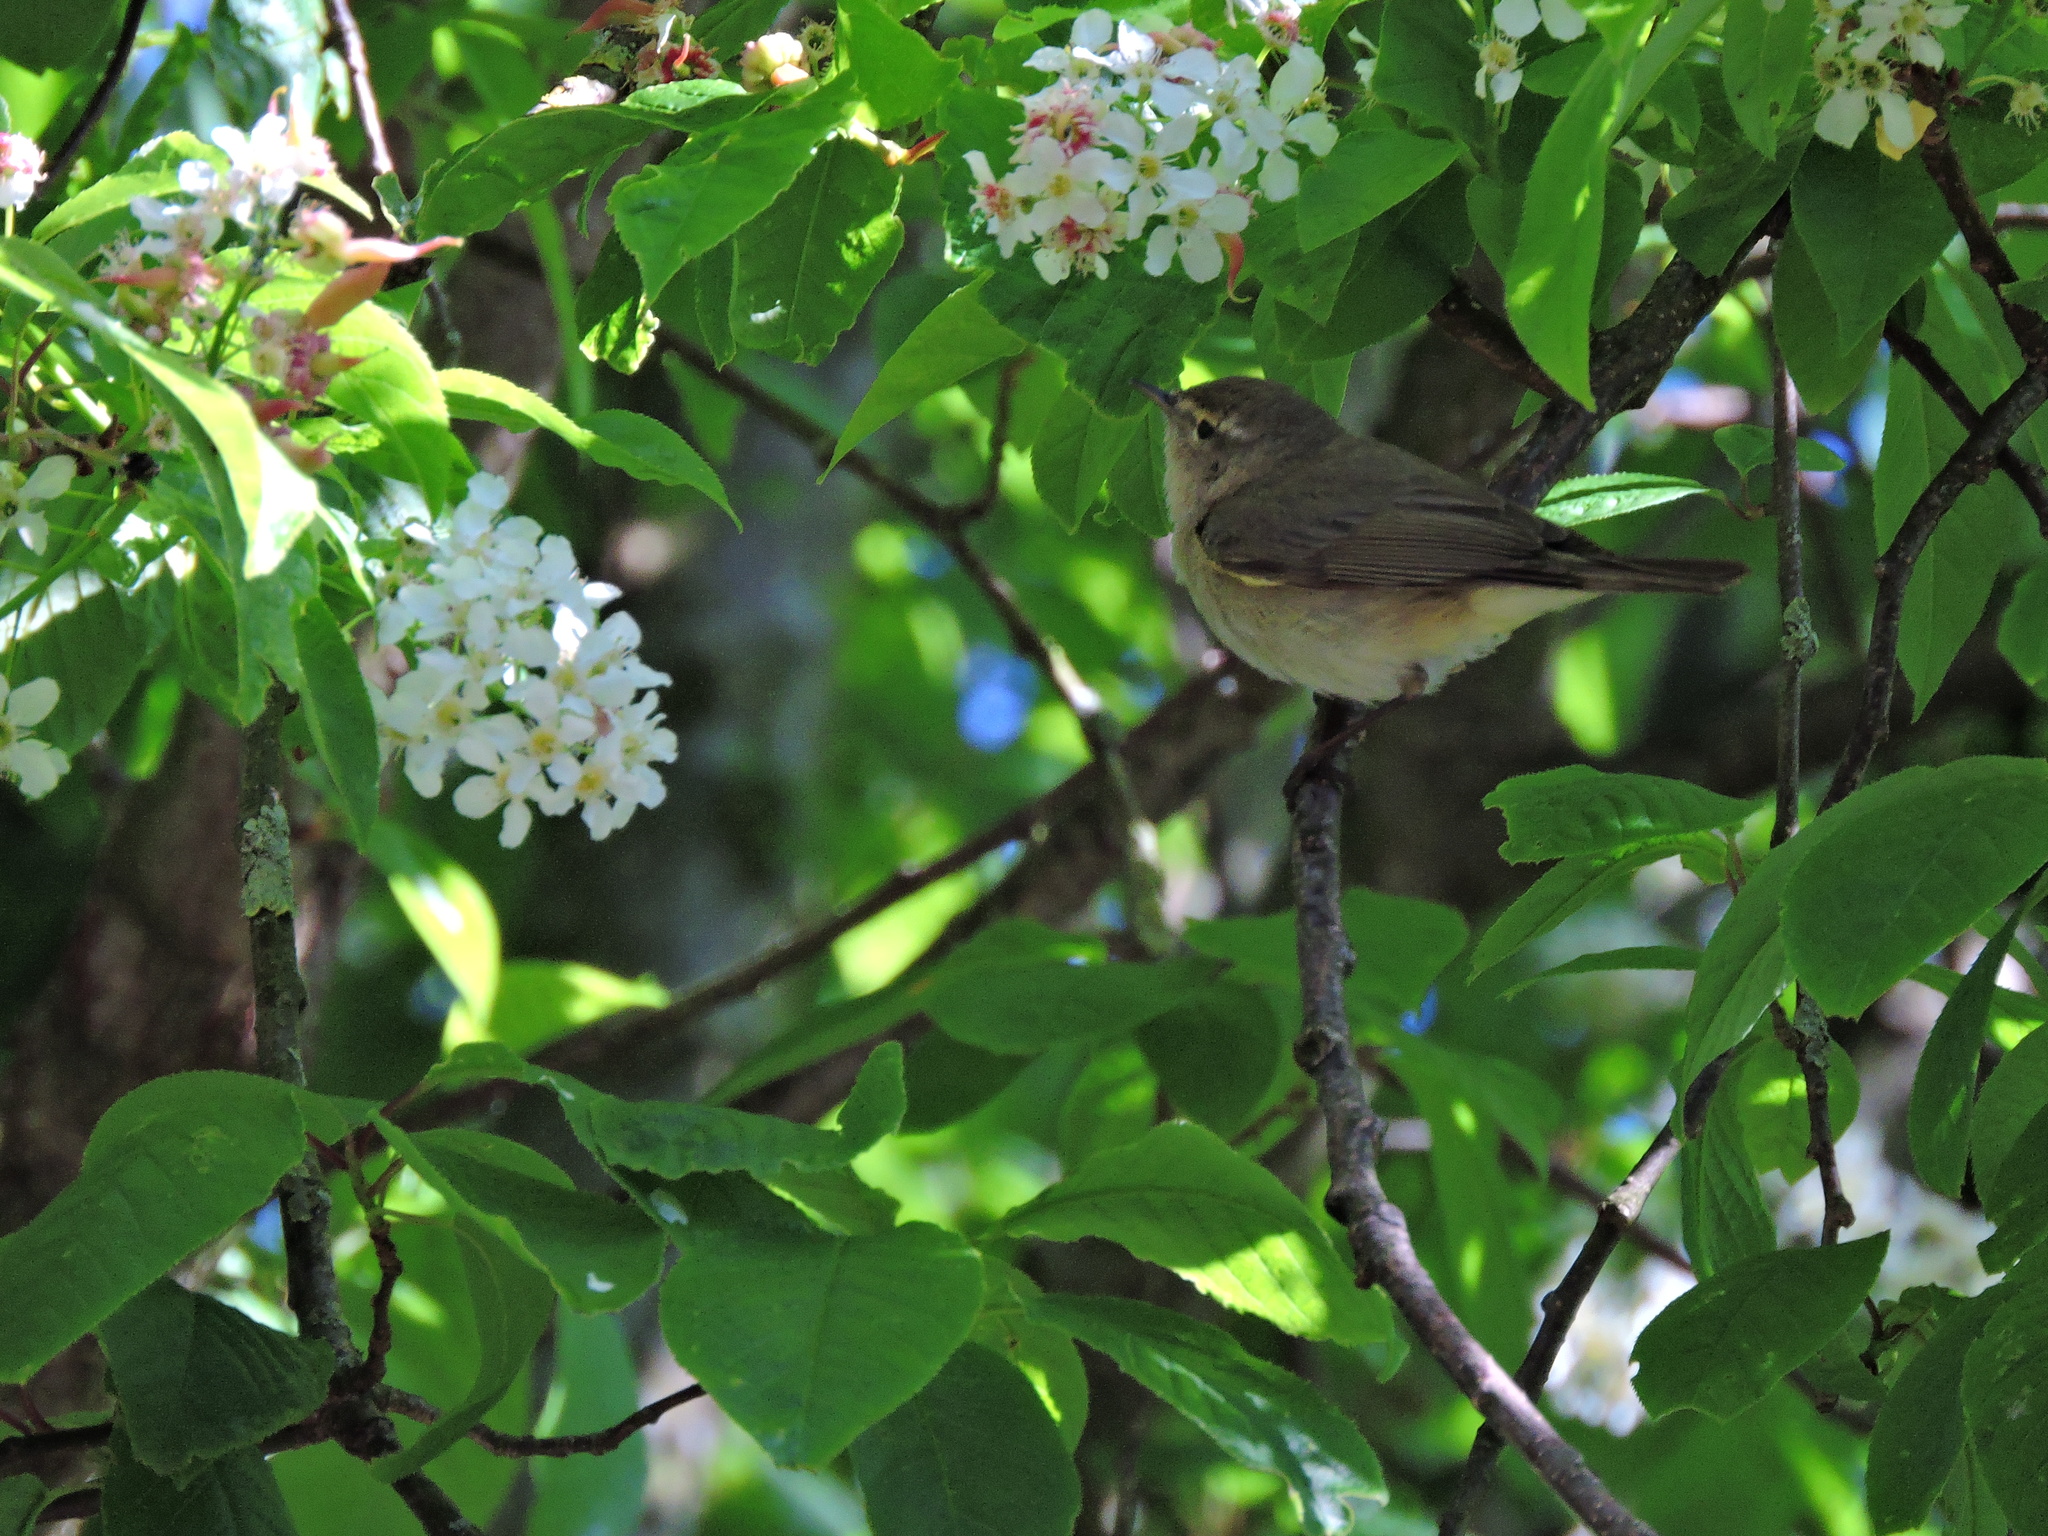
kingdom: Animalia
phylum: Chordata
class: Aves
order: Passeriformes
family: Phylloscopidae
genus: Phylloscopus
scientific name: Phylloscopus collybita
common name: Common chiffchaff
